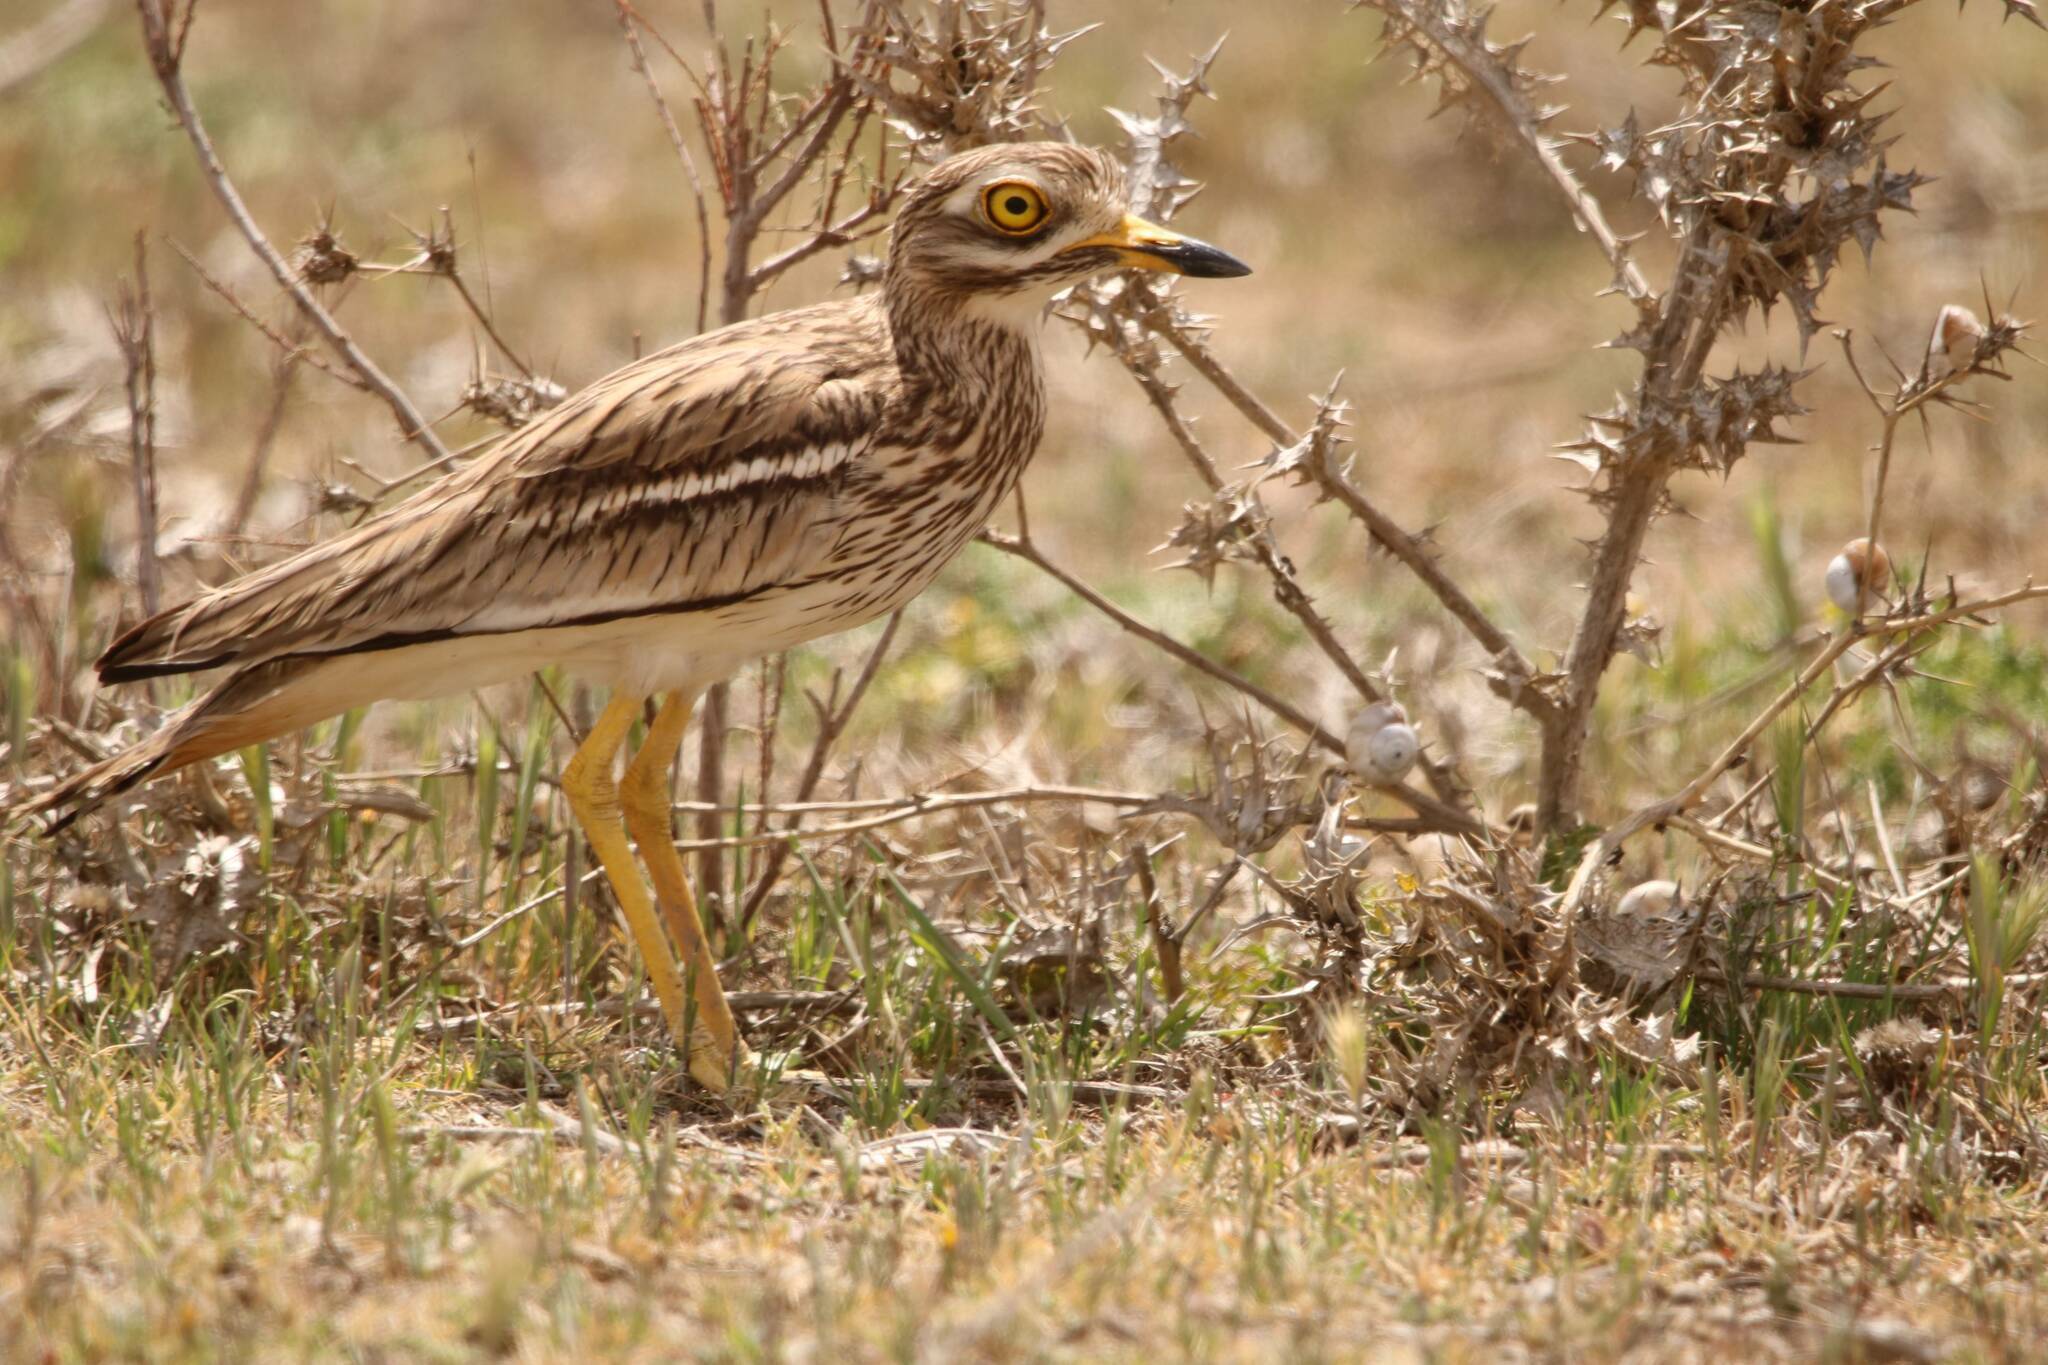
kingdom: Animalia
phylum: Chordata
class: Aves
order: Charadriiformes
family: Burhinidae
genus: Burhinus
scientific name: Burhinus oedicnemus
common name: Eurasian stone-curlew
